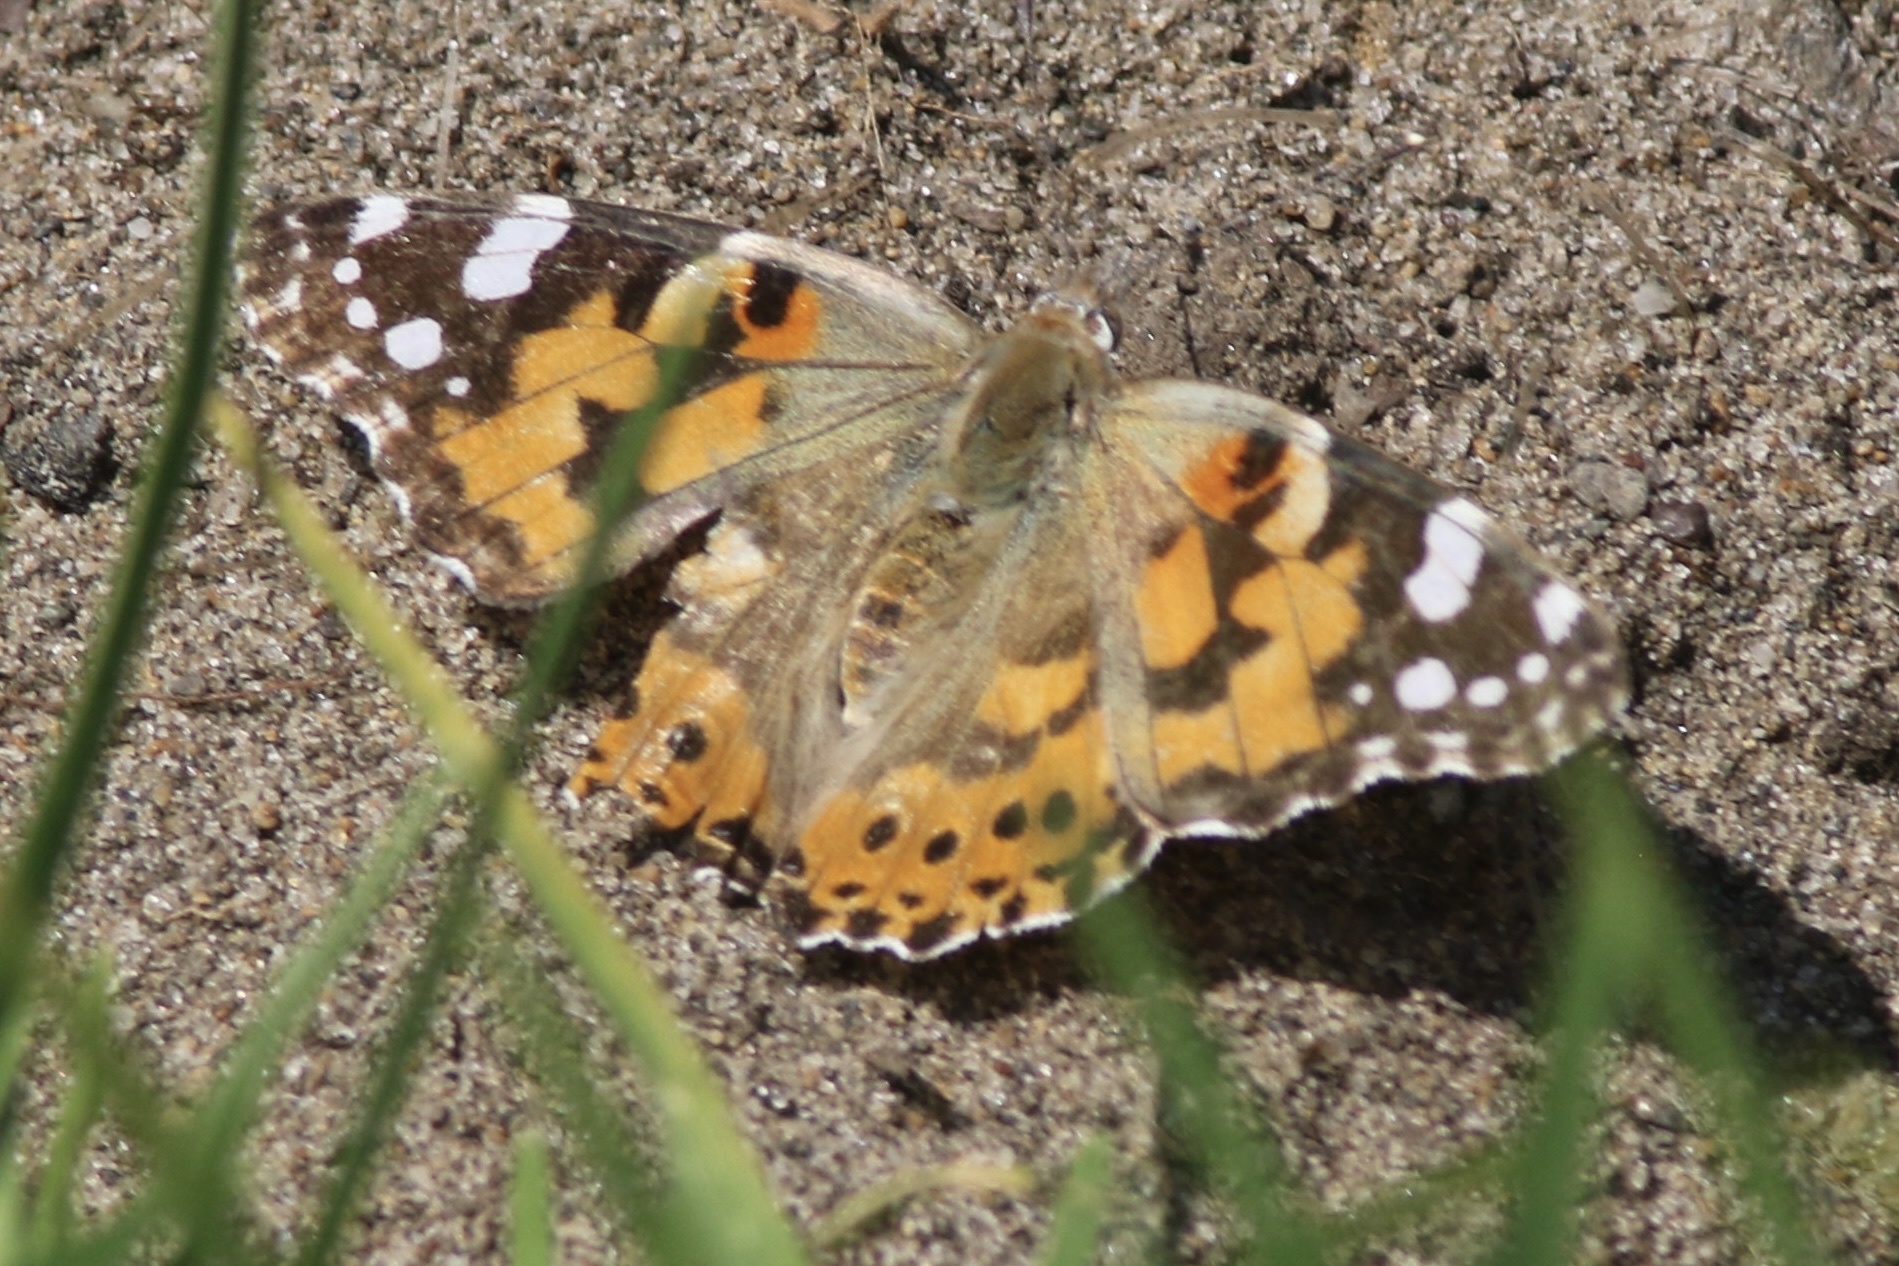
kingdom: Animalia
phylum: Arthropoda
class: Insecta
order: Lepidoptera
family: Nymphalidae
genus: Vanessa
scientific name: Vanessa cardui
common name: Painted lady
